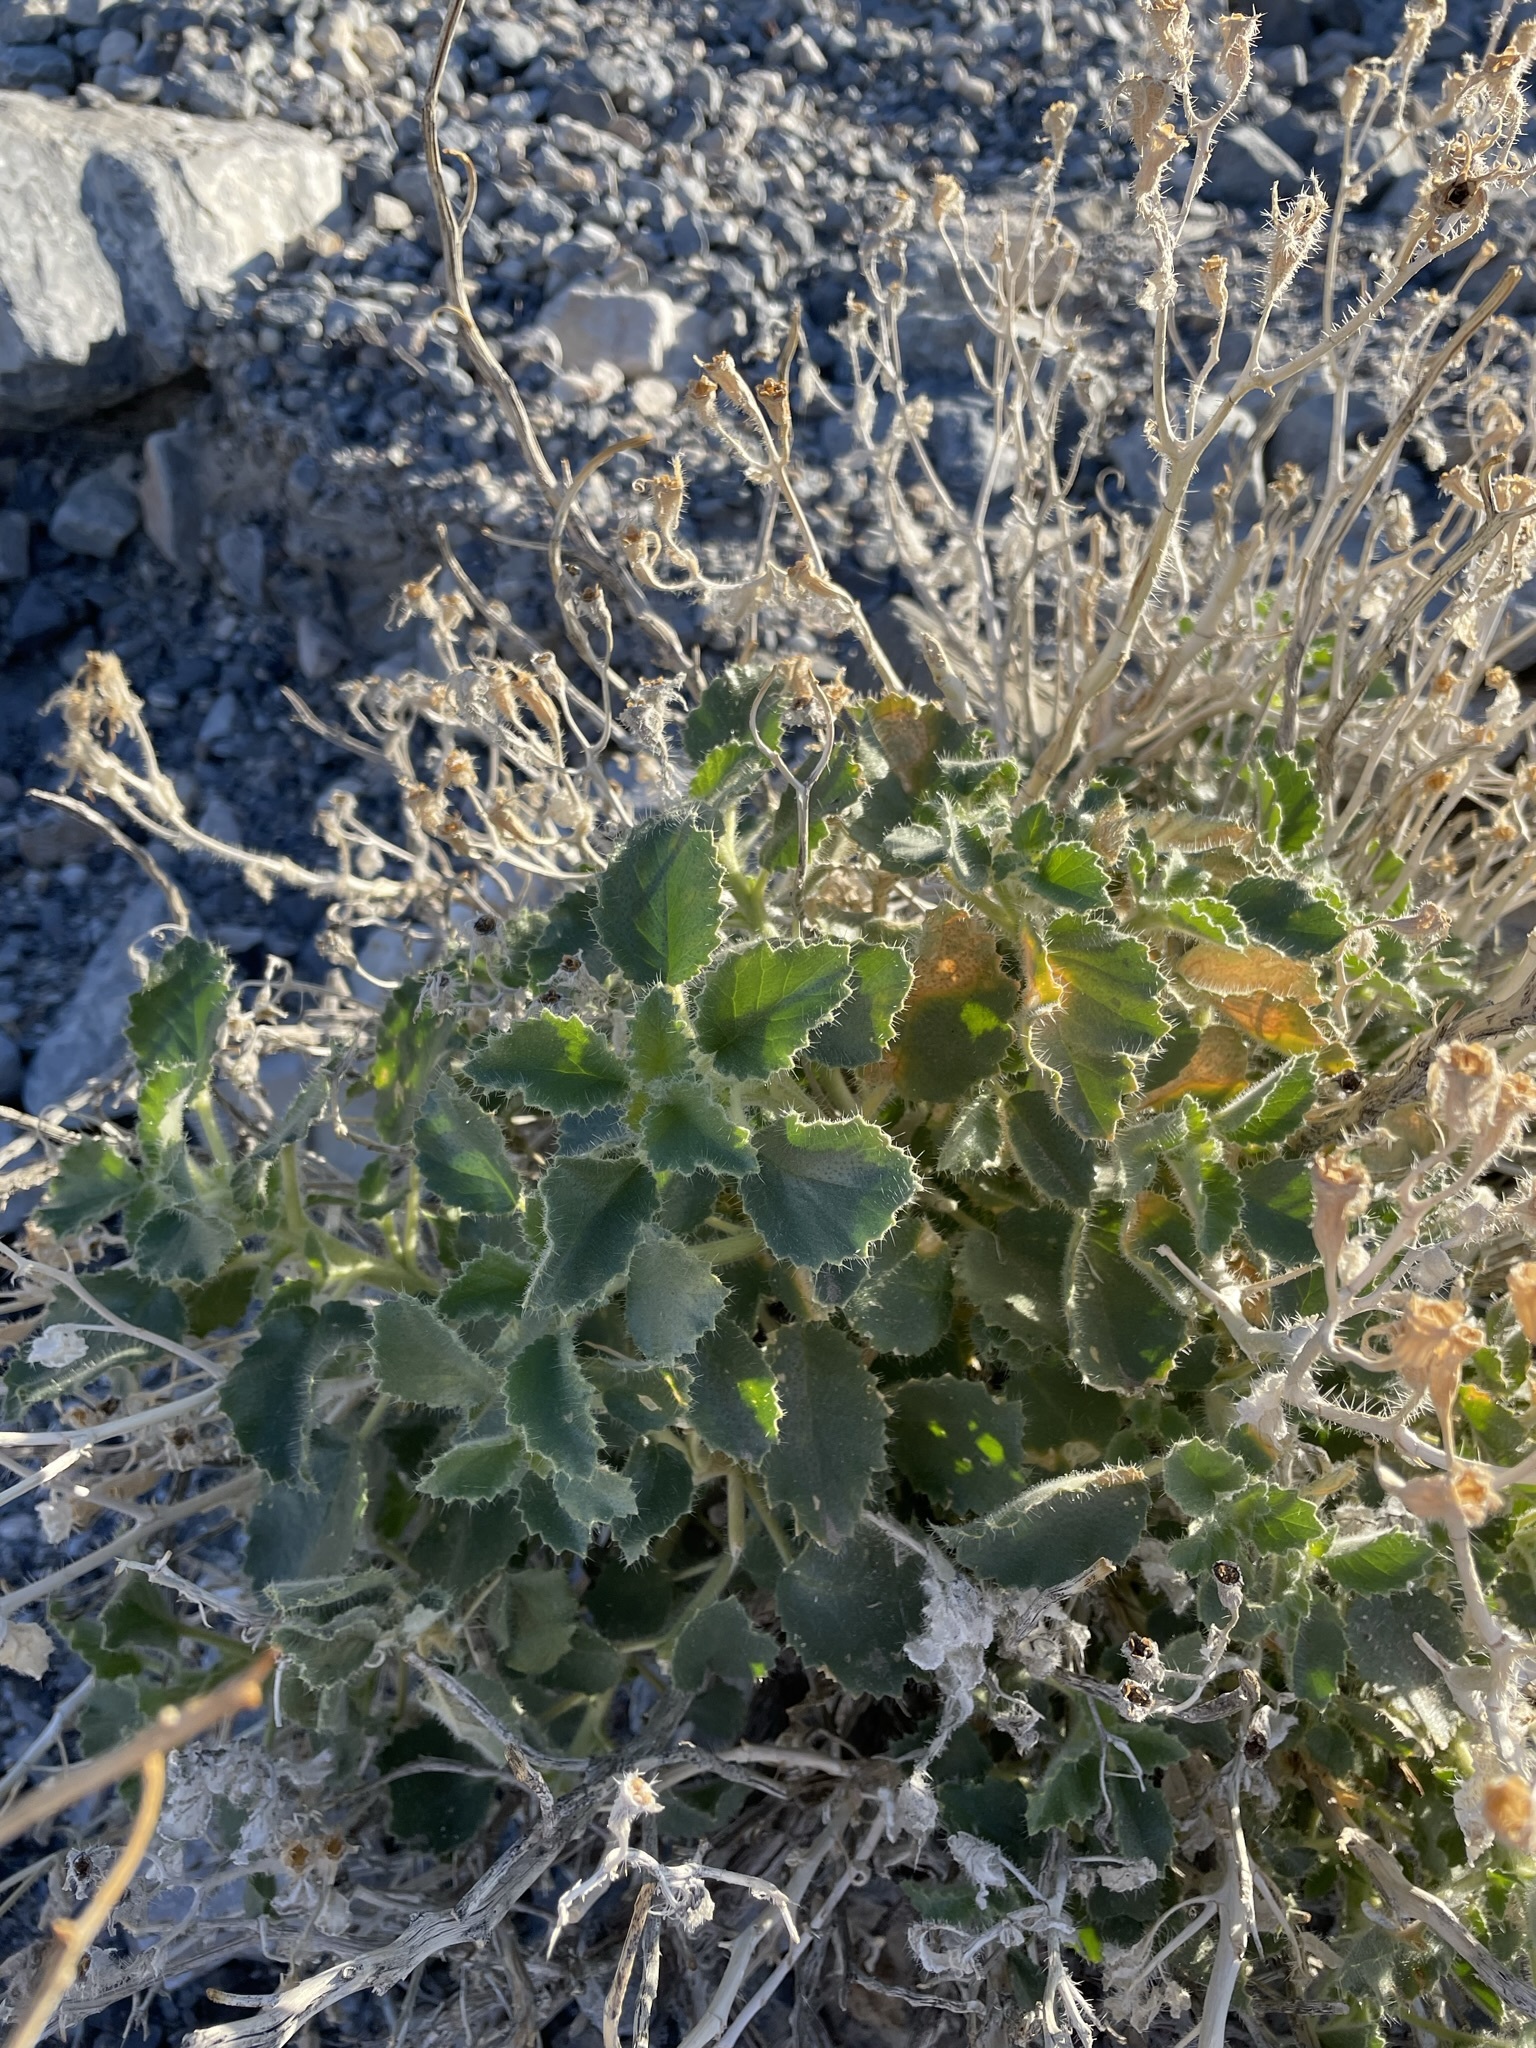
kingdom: Plantae
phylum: Tracheophyta
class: Magnoliopsida
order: Cornales
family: Loasaceae
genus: Eucnide
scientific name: Eucnide urens
